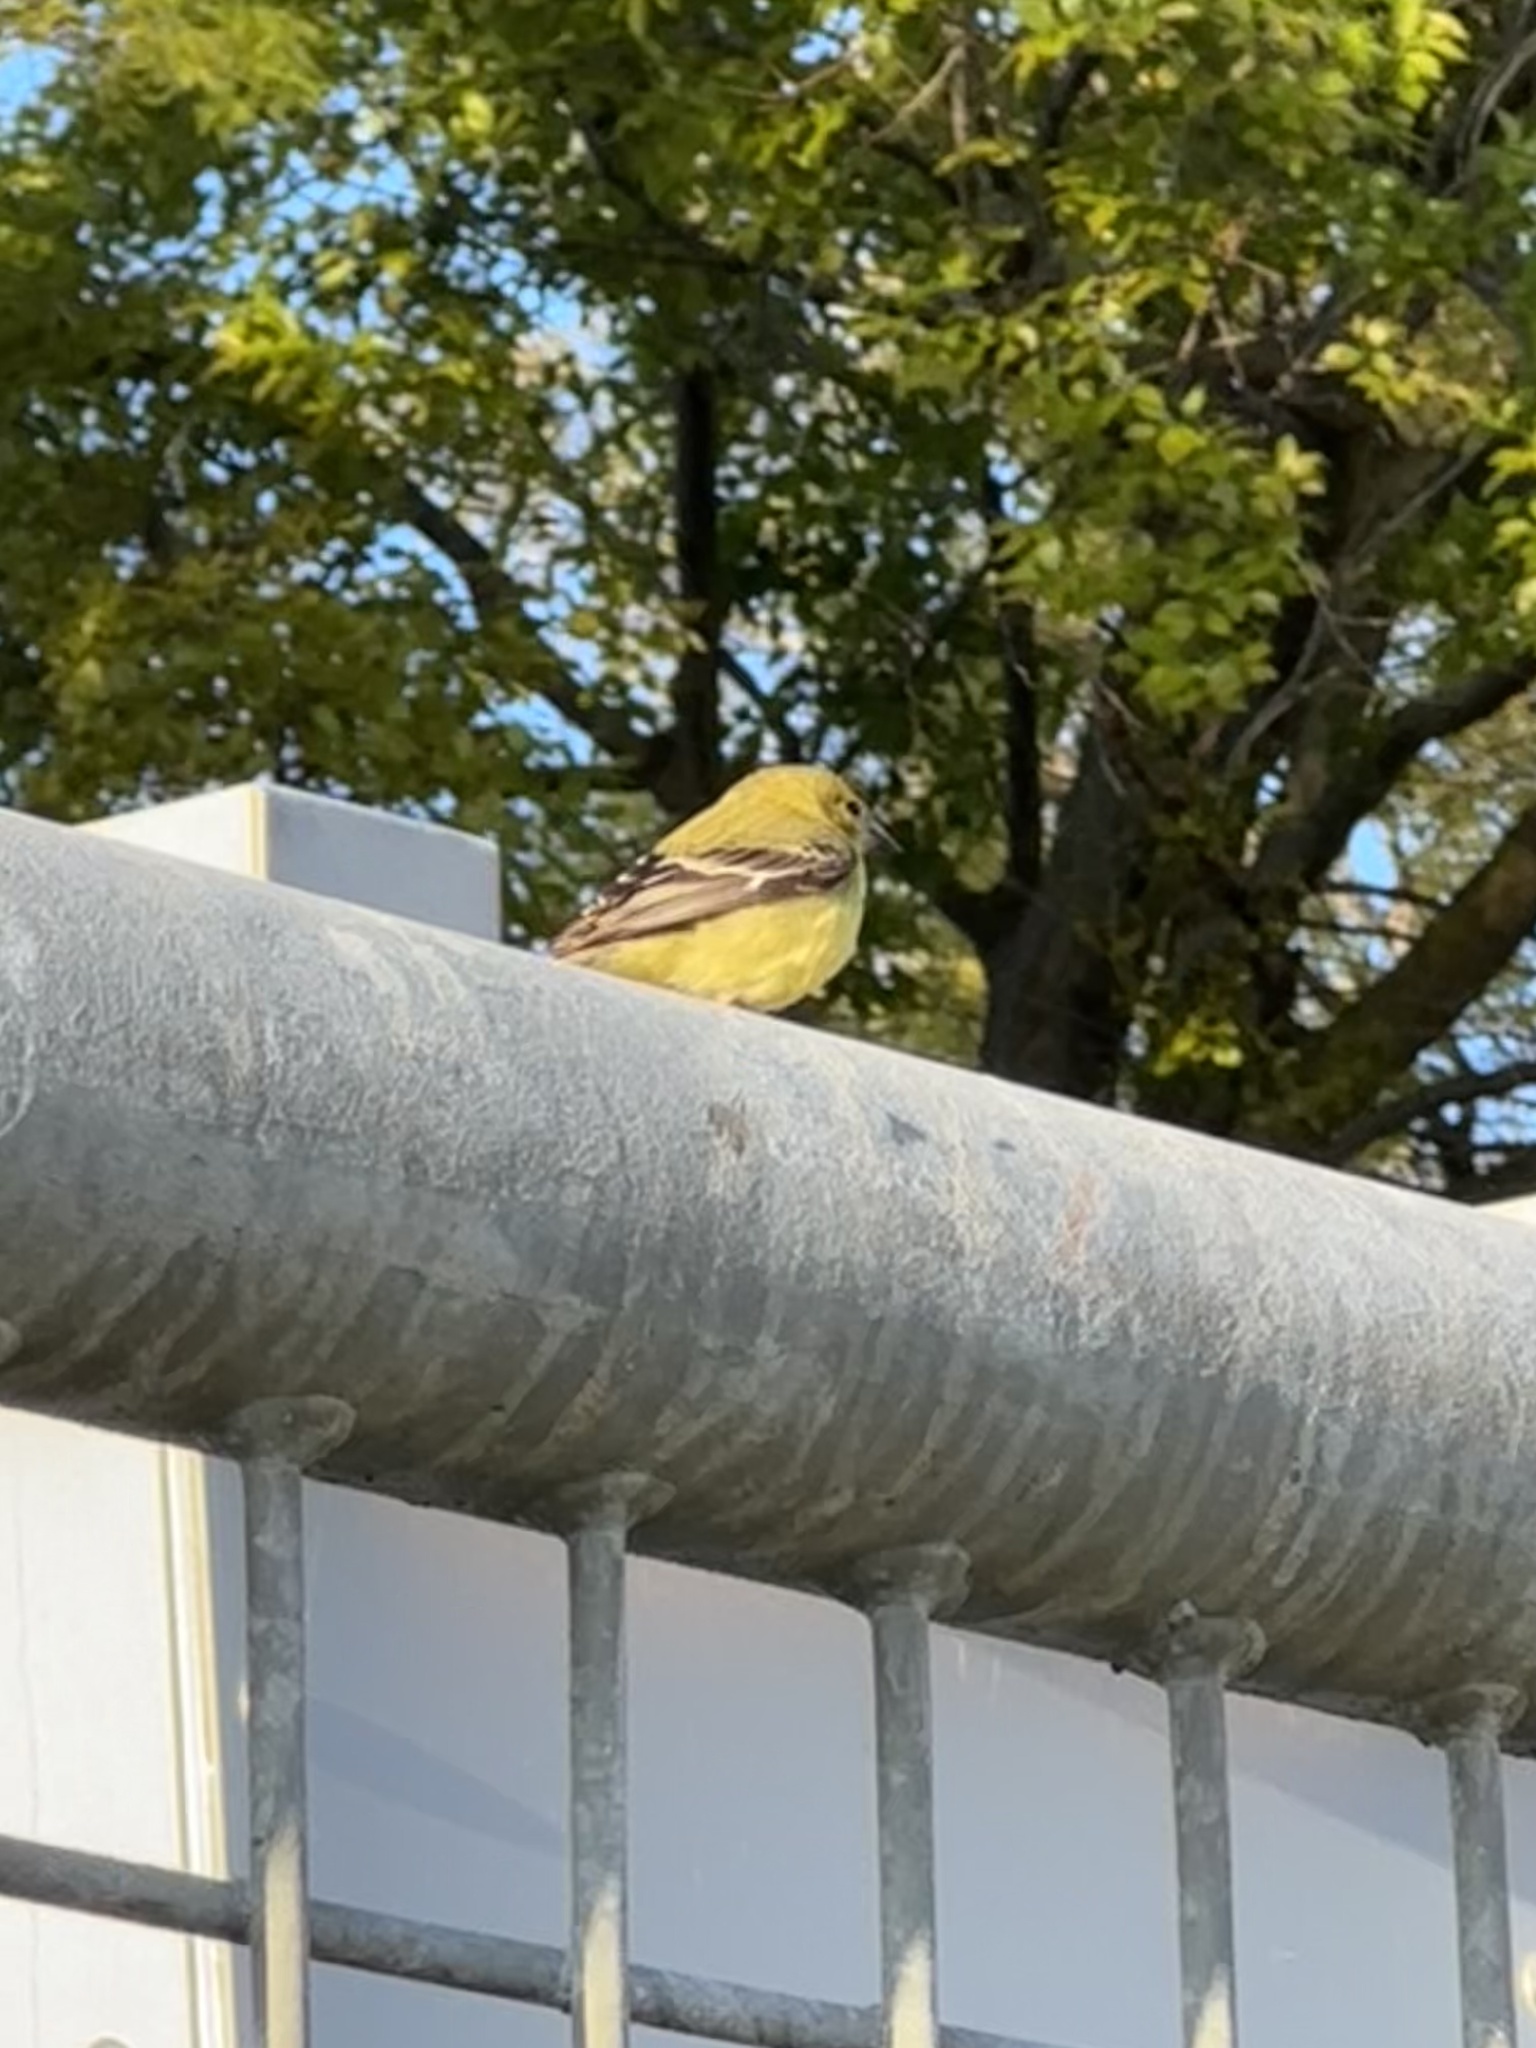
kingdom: Animalia
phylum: Chordata
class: Aves
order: Passeriformes
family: Fringillidae
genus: Spinus
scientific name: Spinus psaltria
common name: Lesser goldfinch
